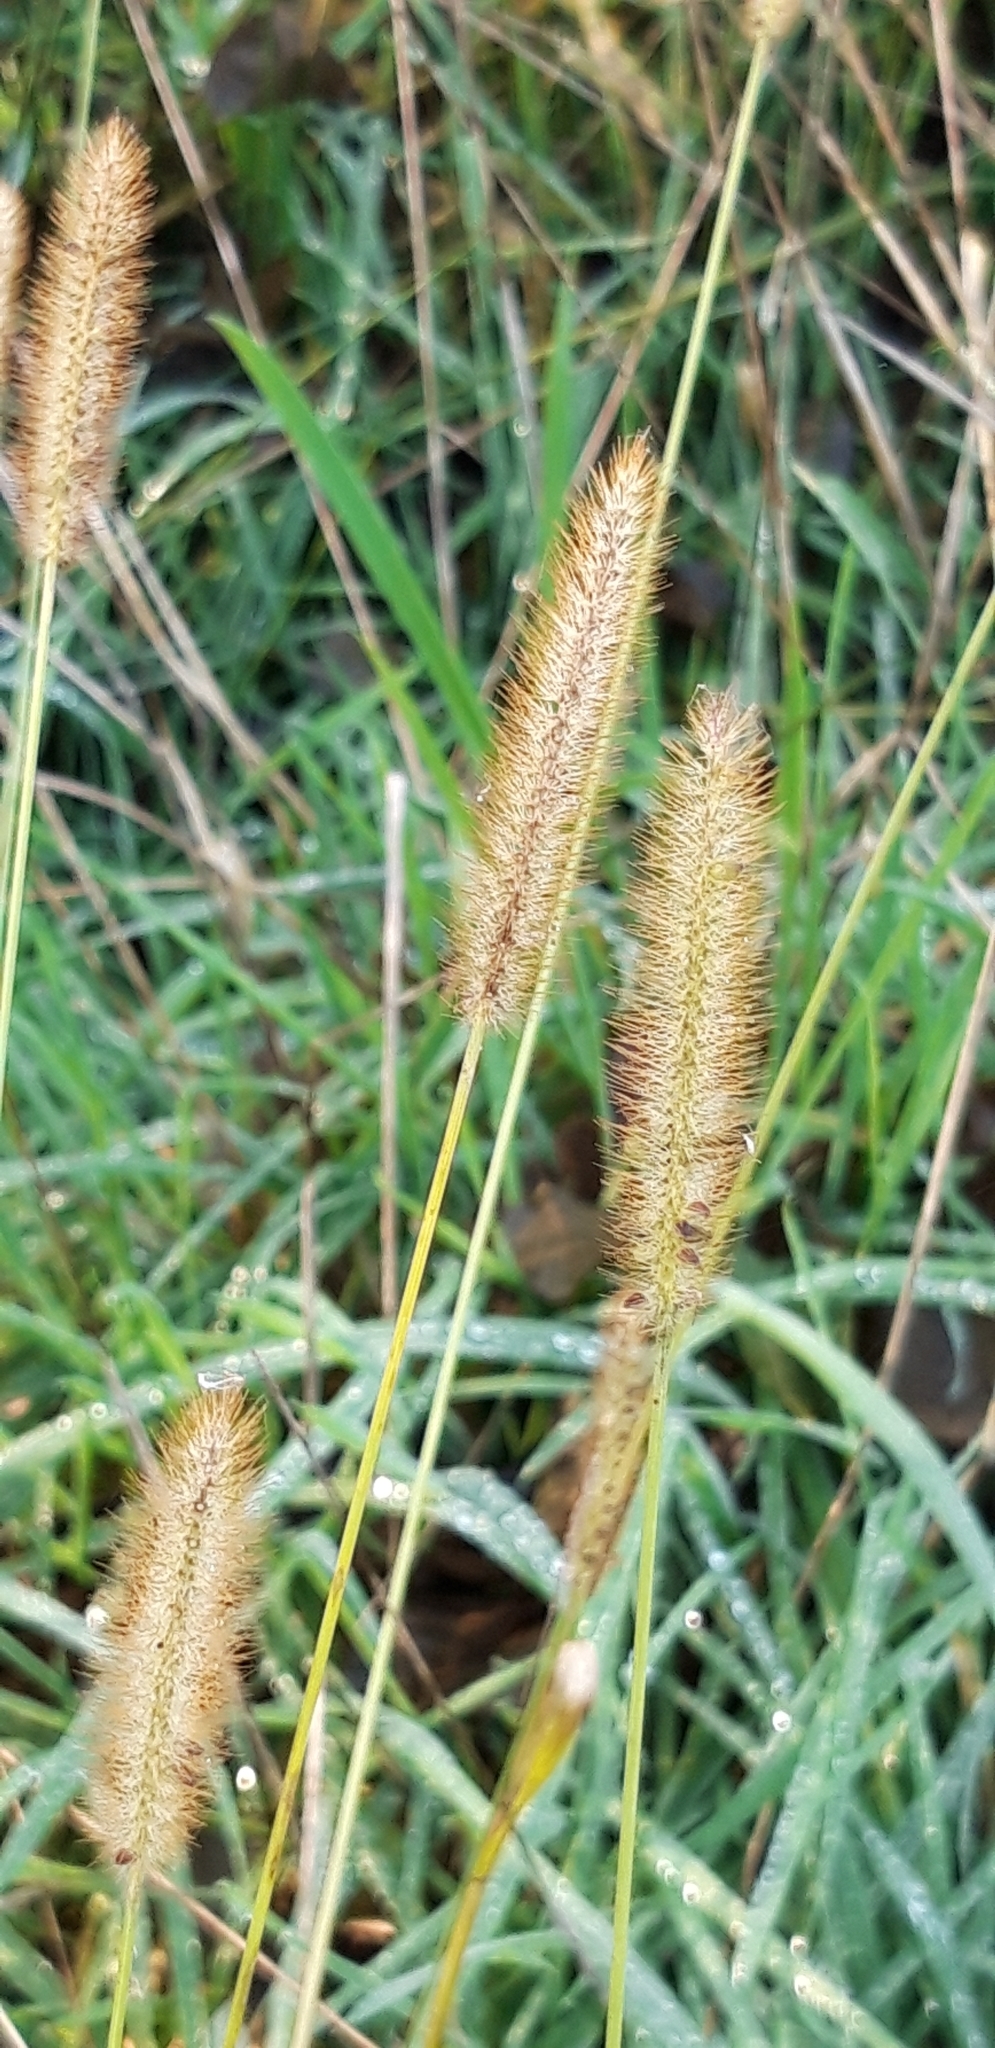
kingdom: Plantae
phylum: Tracheophyta
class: Liliopsida
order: Poales
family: Poaceae
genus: Setaria
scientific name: Setaria pumila
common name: Yellow bristle-grass
